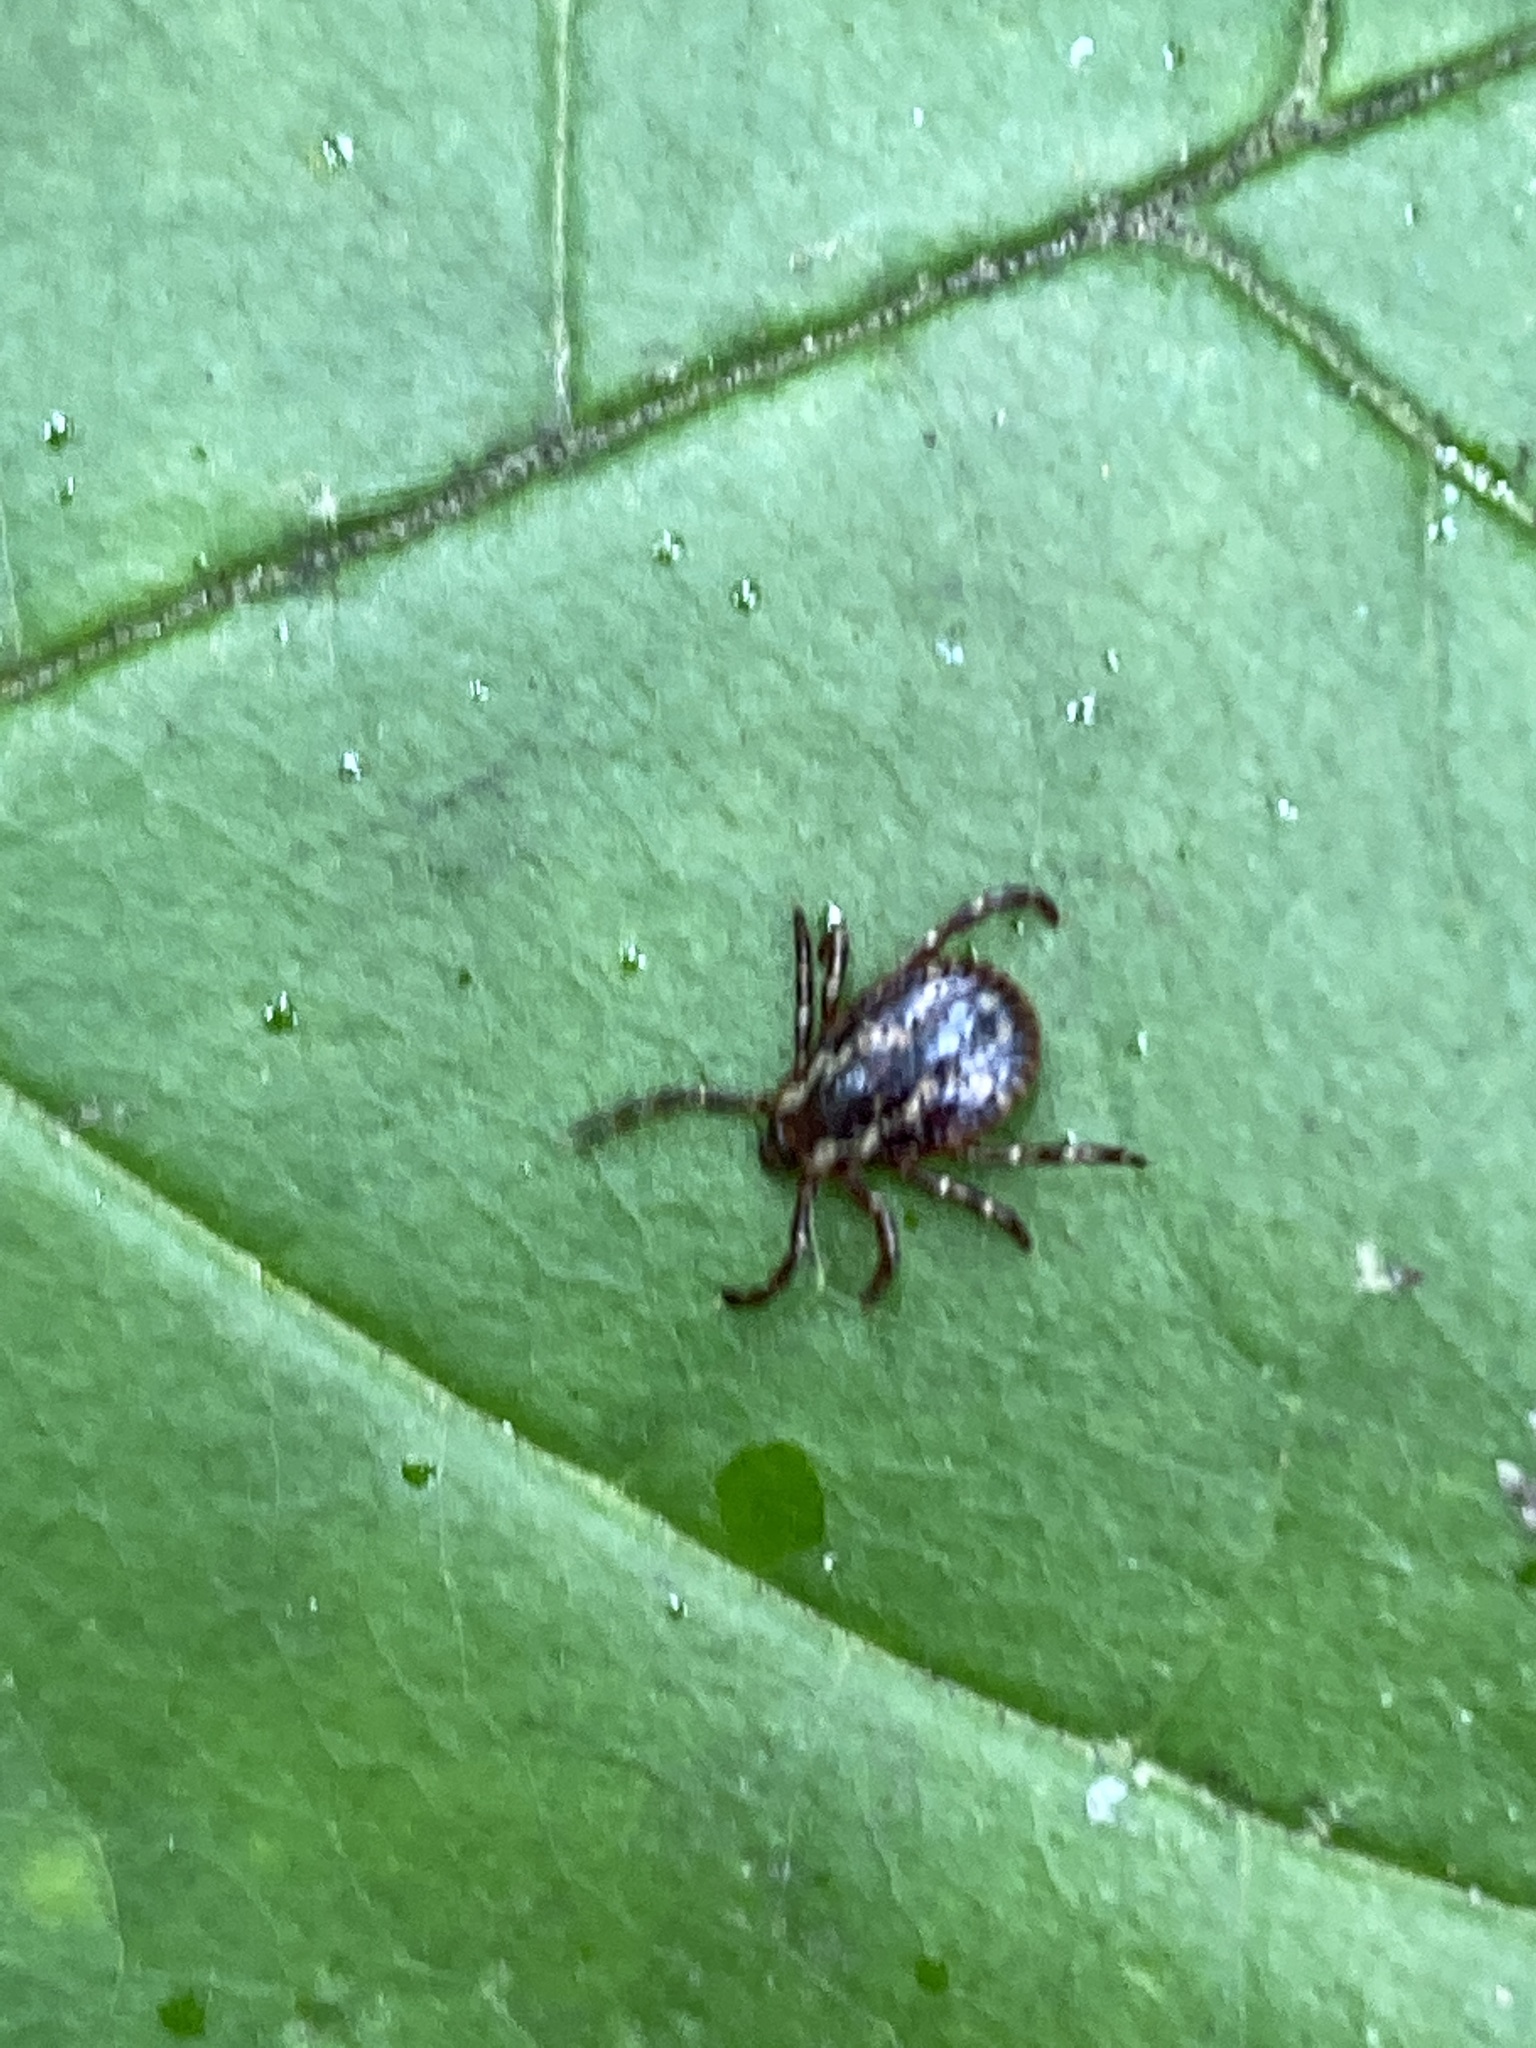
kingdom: Animalia
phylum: Arthropoda
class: Arachnida
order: Ixodida
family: Ixodidae
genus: Dermacentor
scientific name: Dermacentor variabilis
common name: American dog tick
